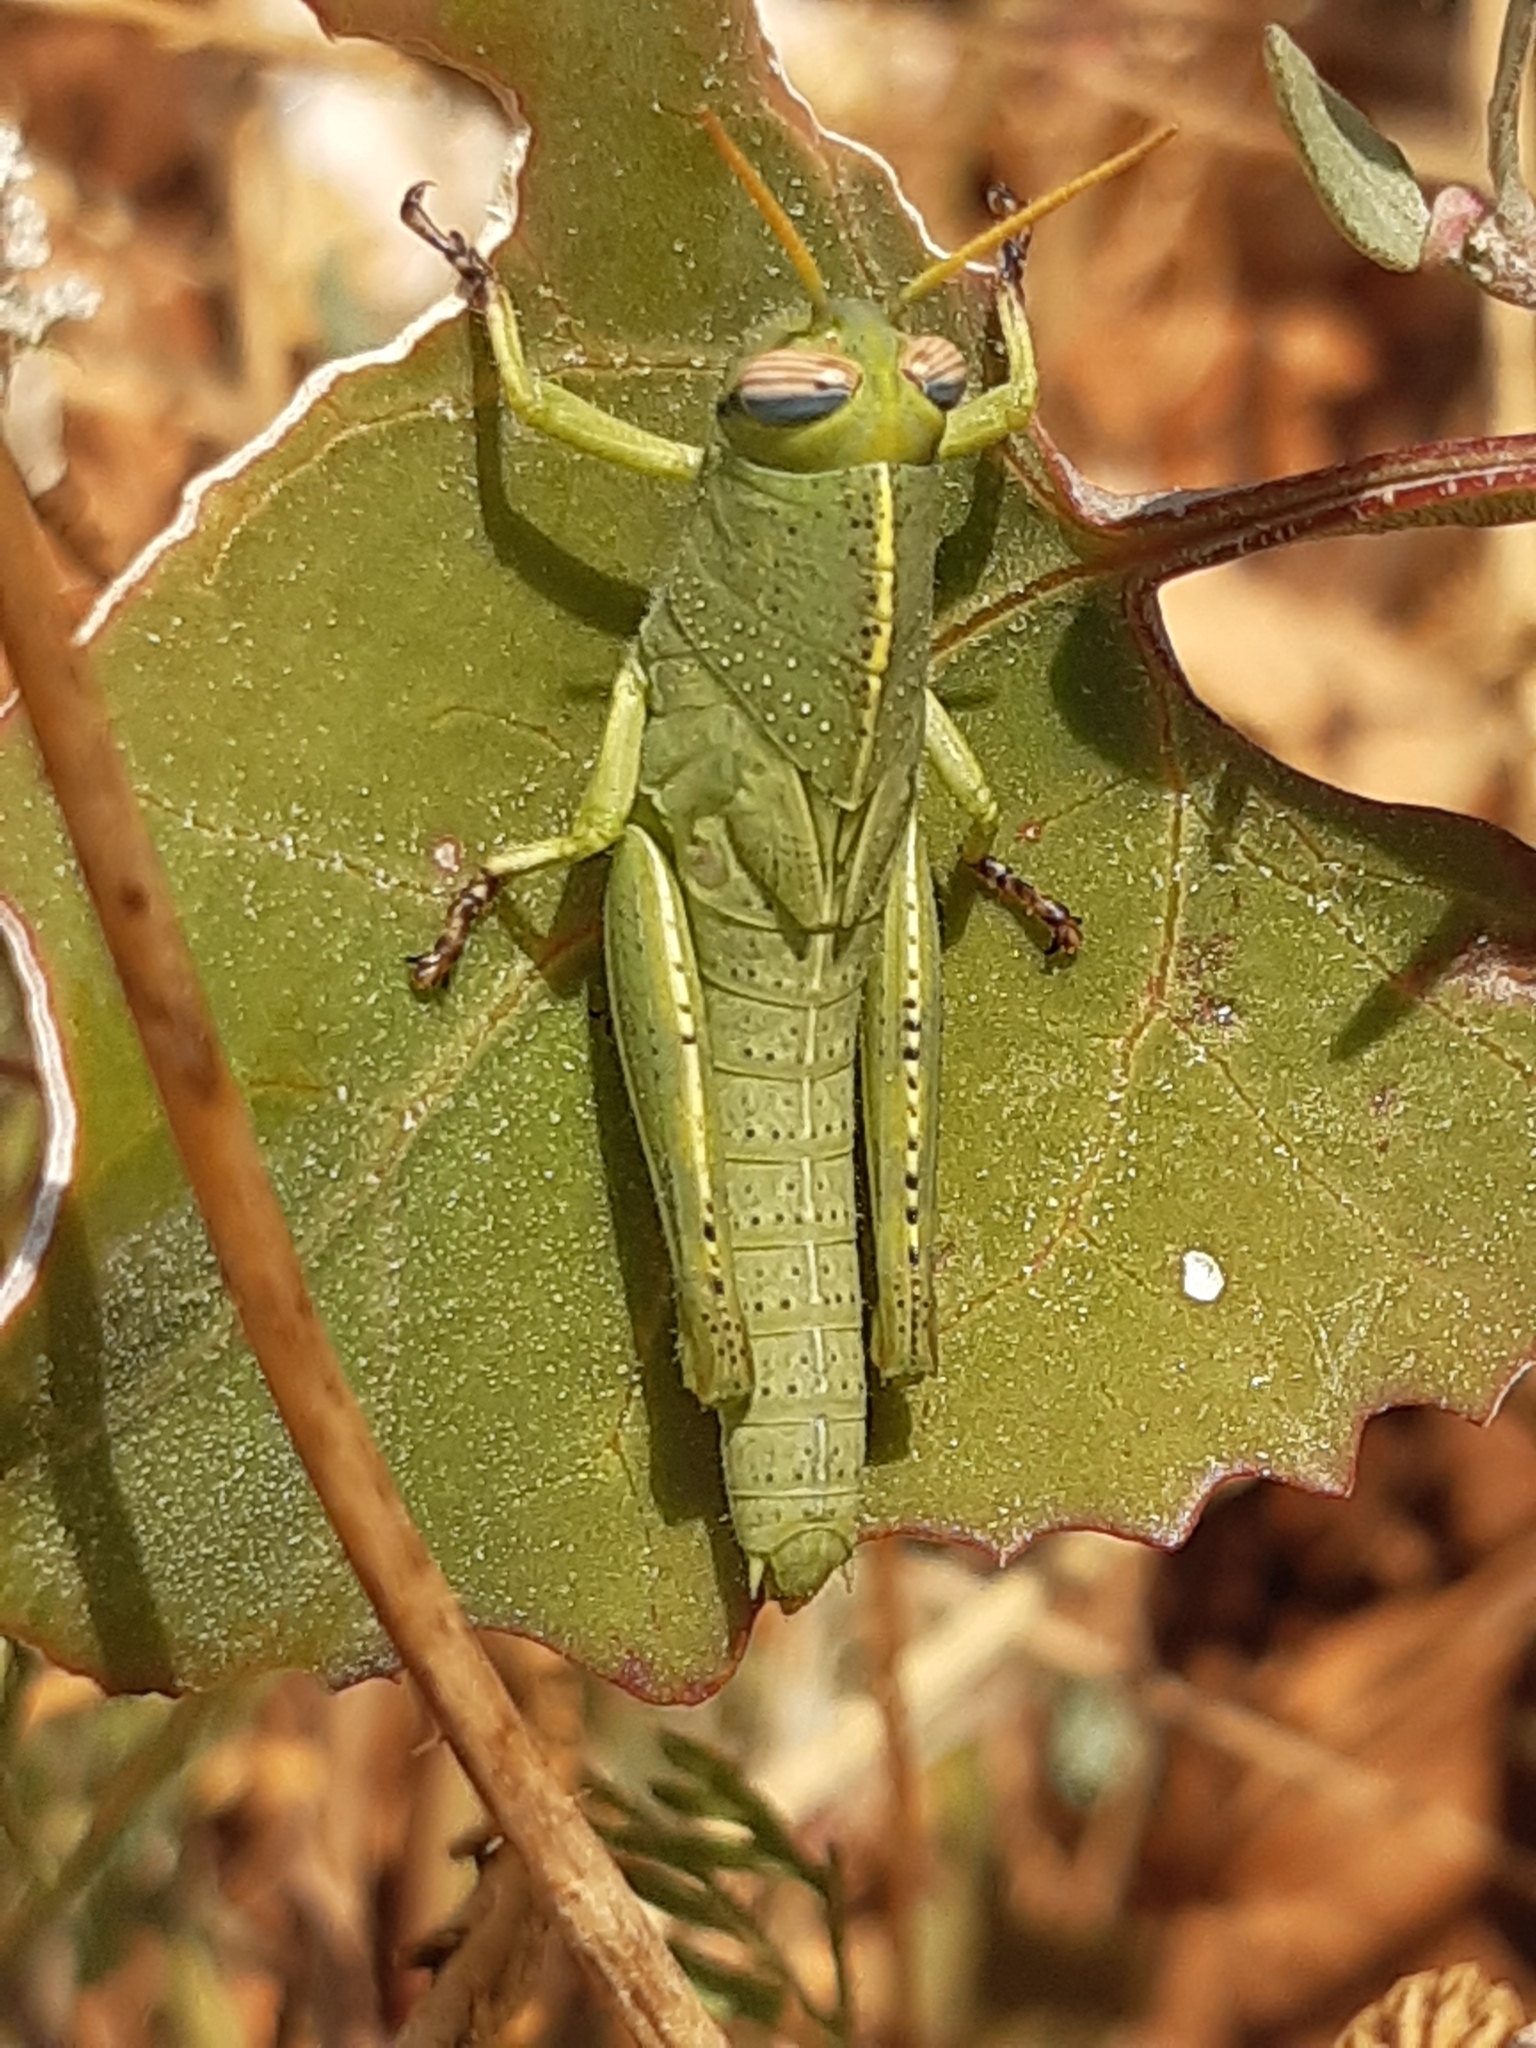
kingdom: Animalia
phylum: Arthropoda
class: Insecta
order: Orthoptera
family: Acrididae
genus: Anacridium
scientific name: Anacridium aegyptium
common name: Egyptian grasshopper
